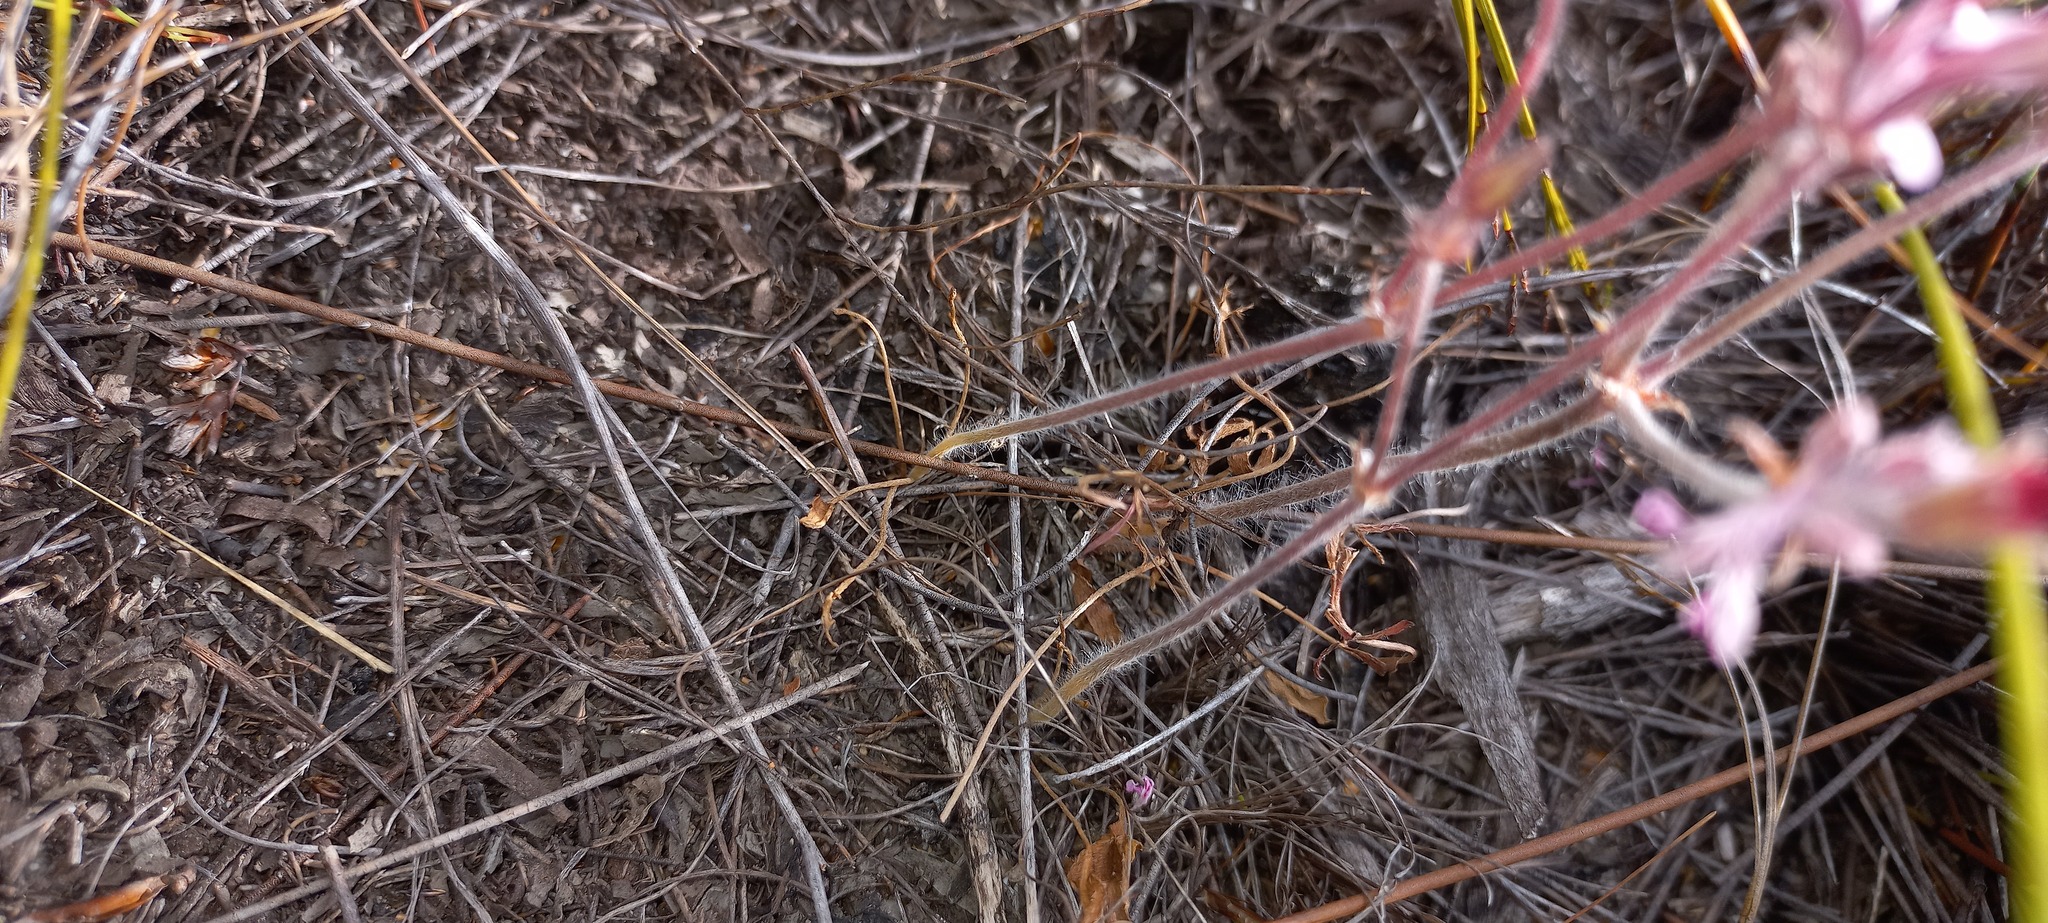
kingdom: Plantae
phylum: Tracheophyta
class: Magnoliopsida
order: Geraniales
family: Geraniaceae
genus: Pelargonium
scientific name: Pelargonium psammophilum
